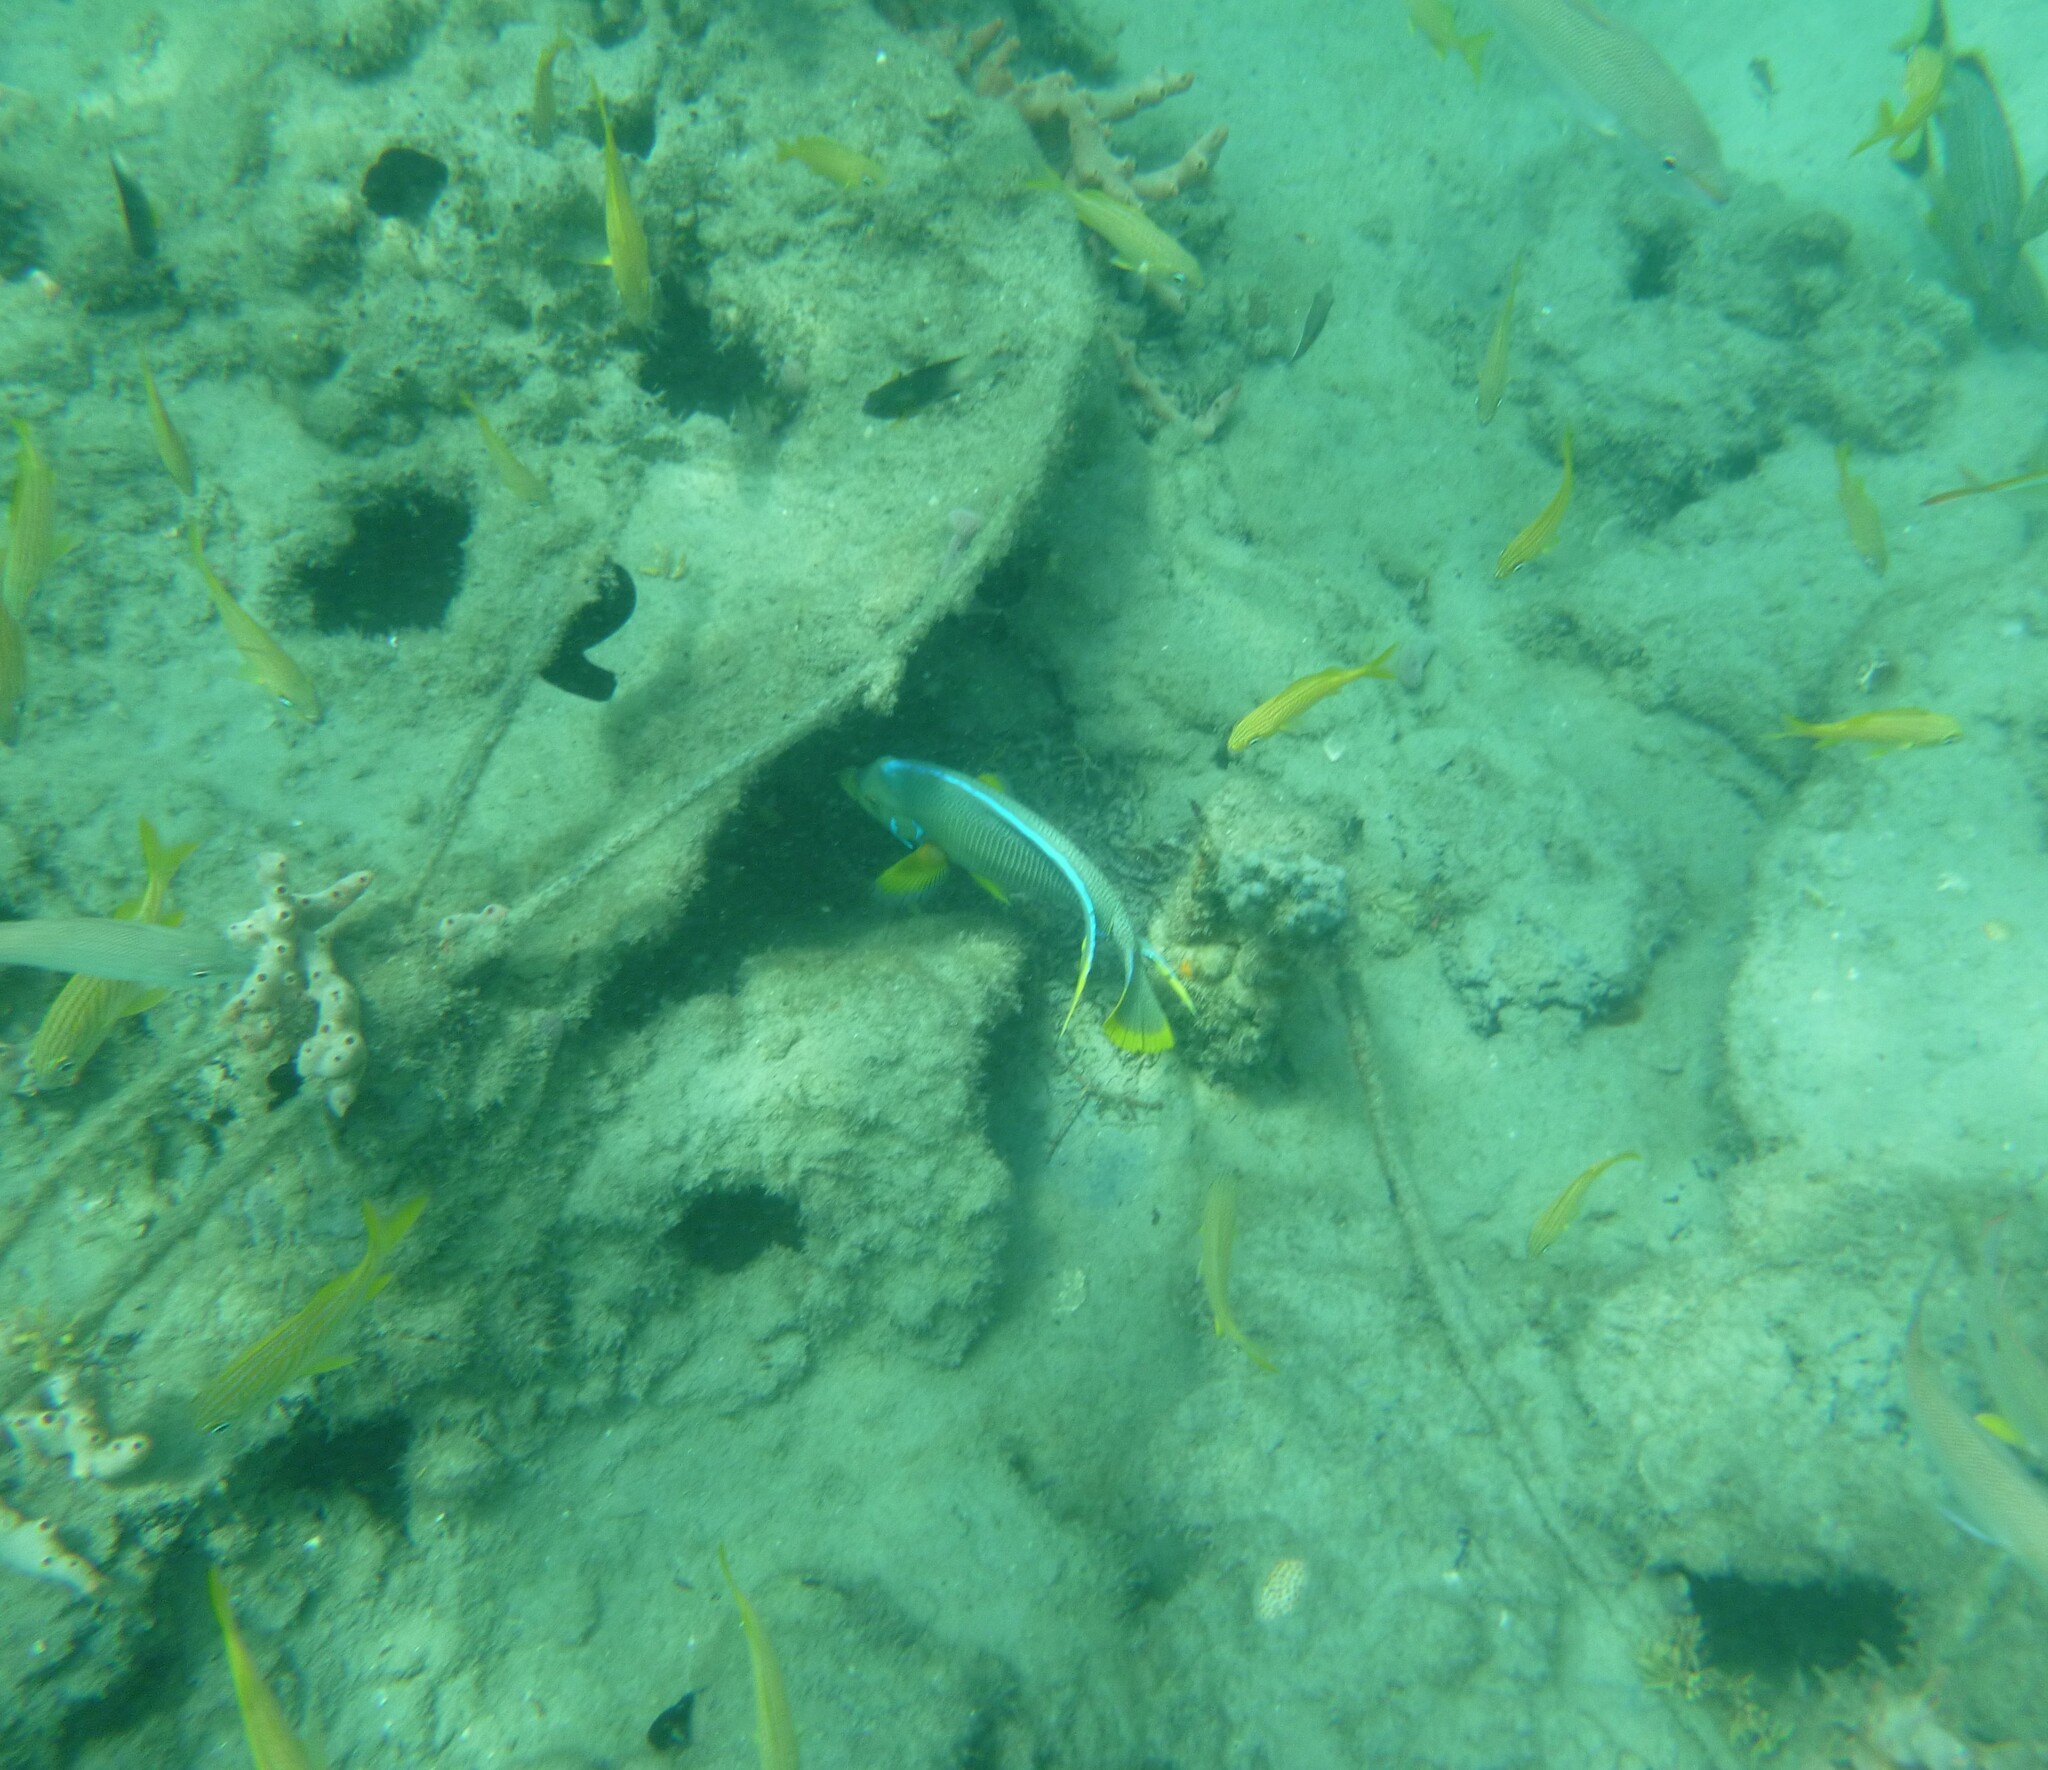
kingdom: Animalia
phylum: Chordata
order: Perciformes
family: Pomacanthidae
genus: Holacanthus
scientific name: Holacanthus bermudensis
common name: Blue angelfish
